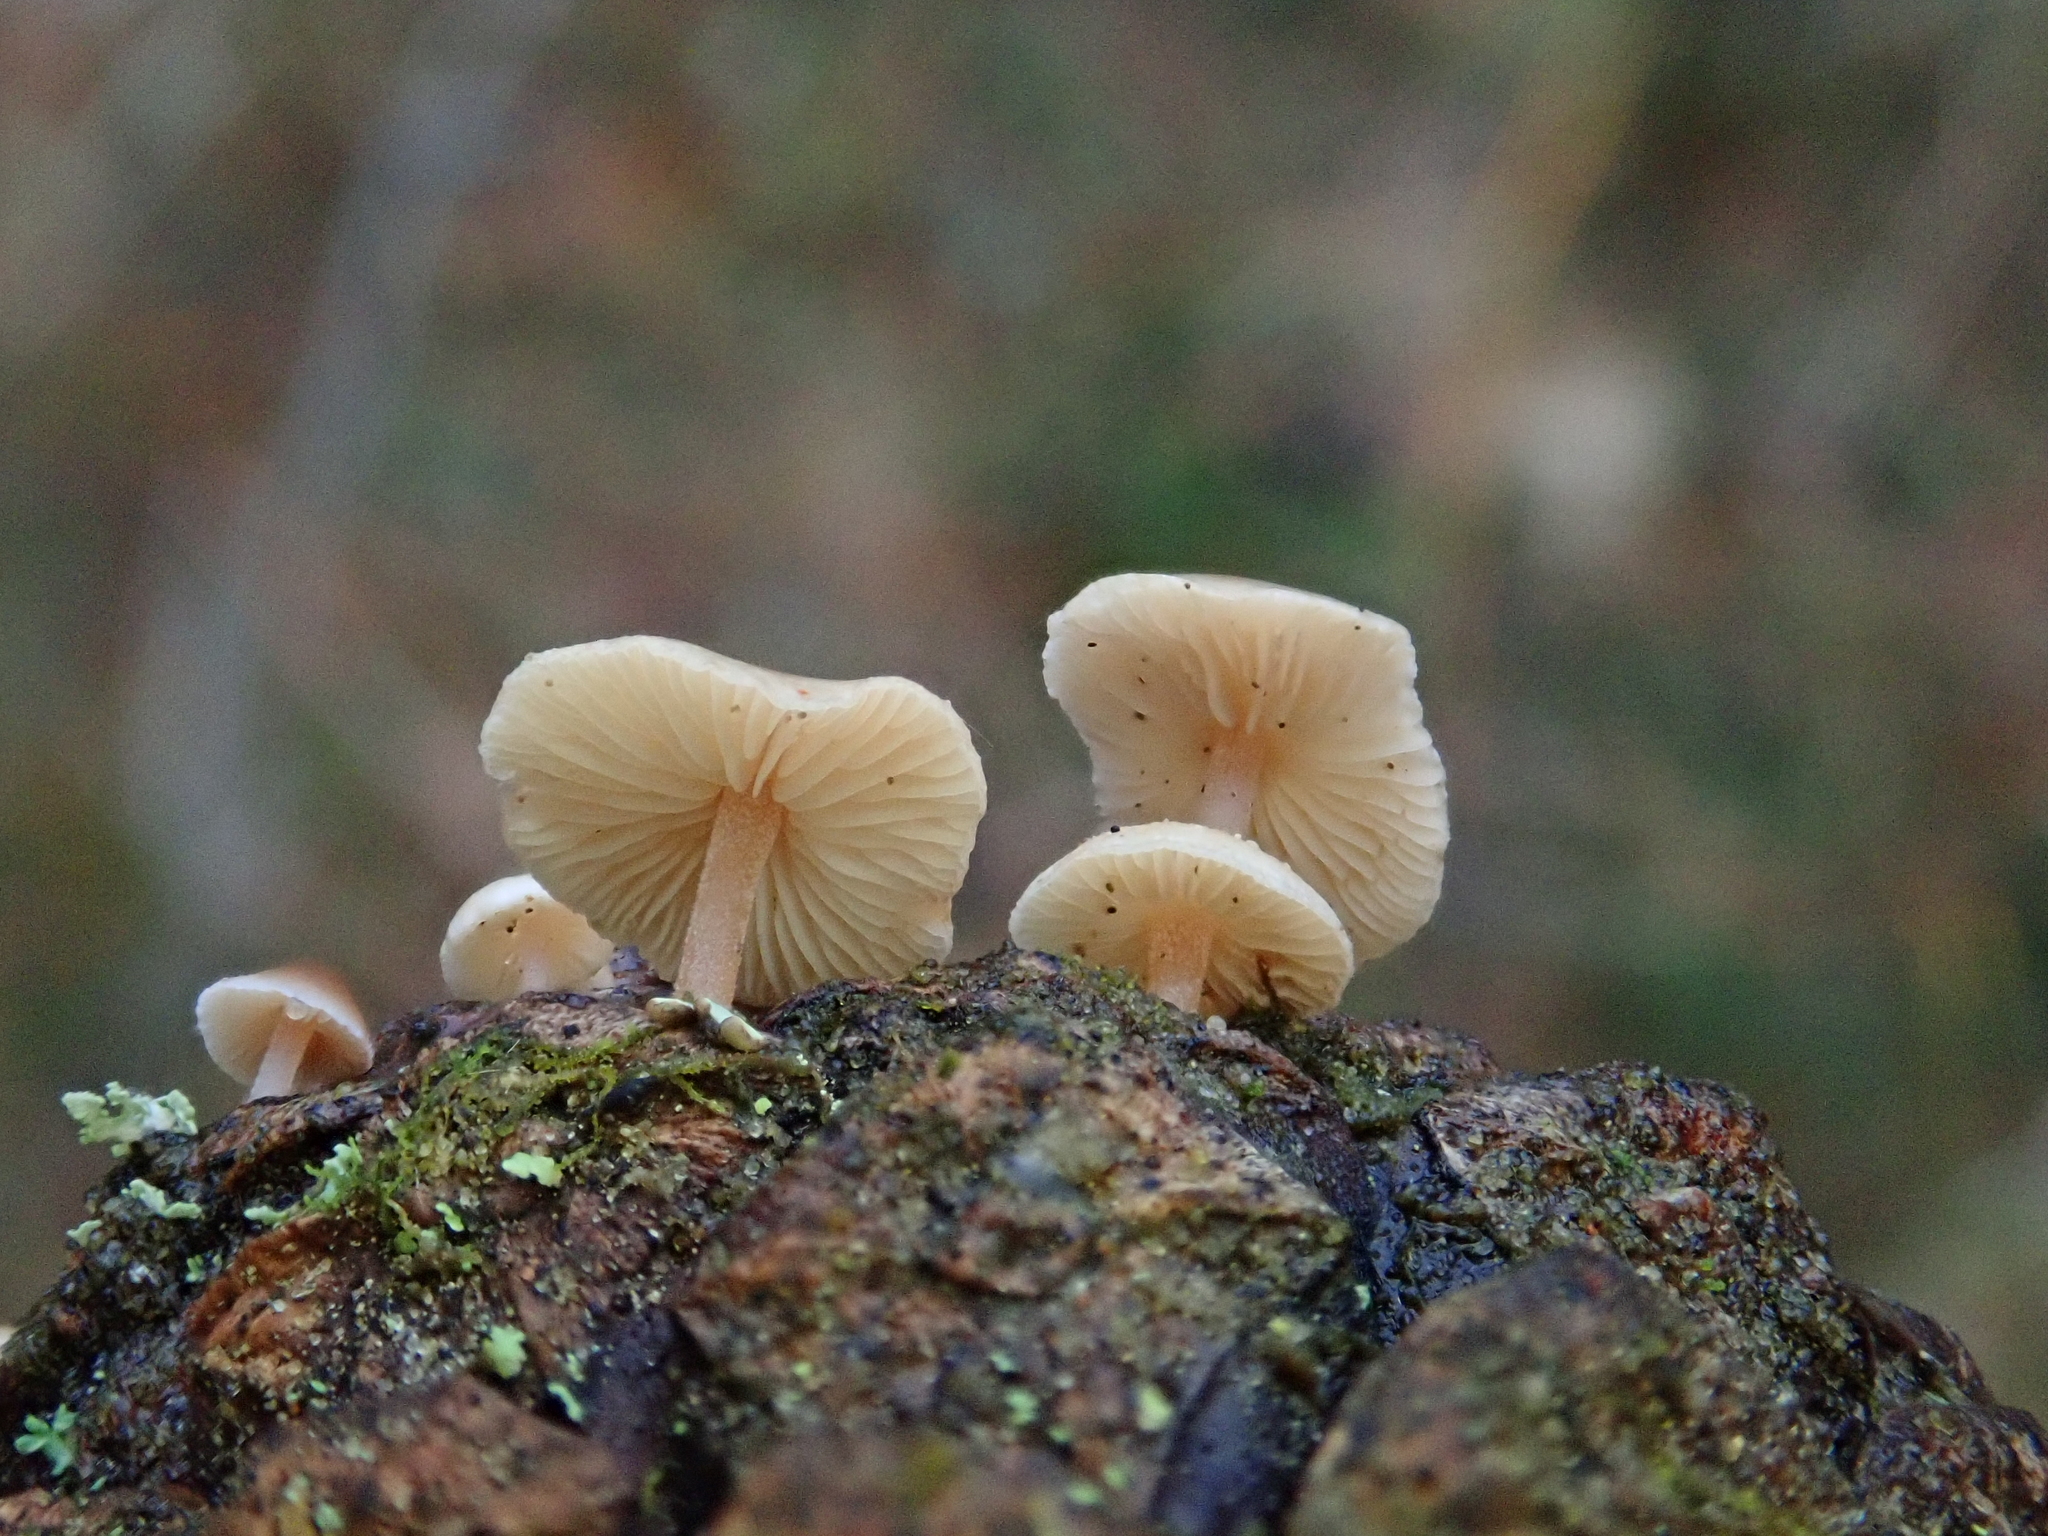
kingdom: Fungi
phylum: Basidiomycota
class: Agaricomycetes
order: Agaricales
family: Marasmiaceae
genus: Baeospora
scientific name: Baeospora myosura
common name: Conifercone cap
